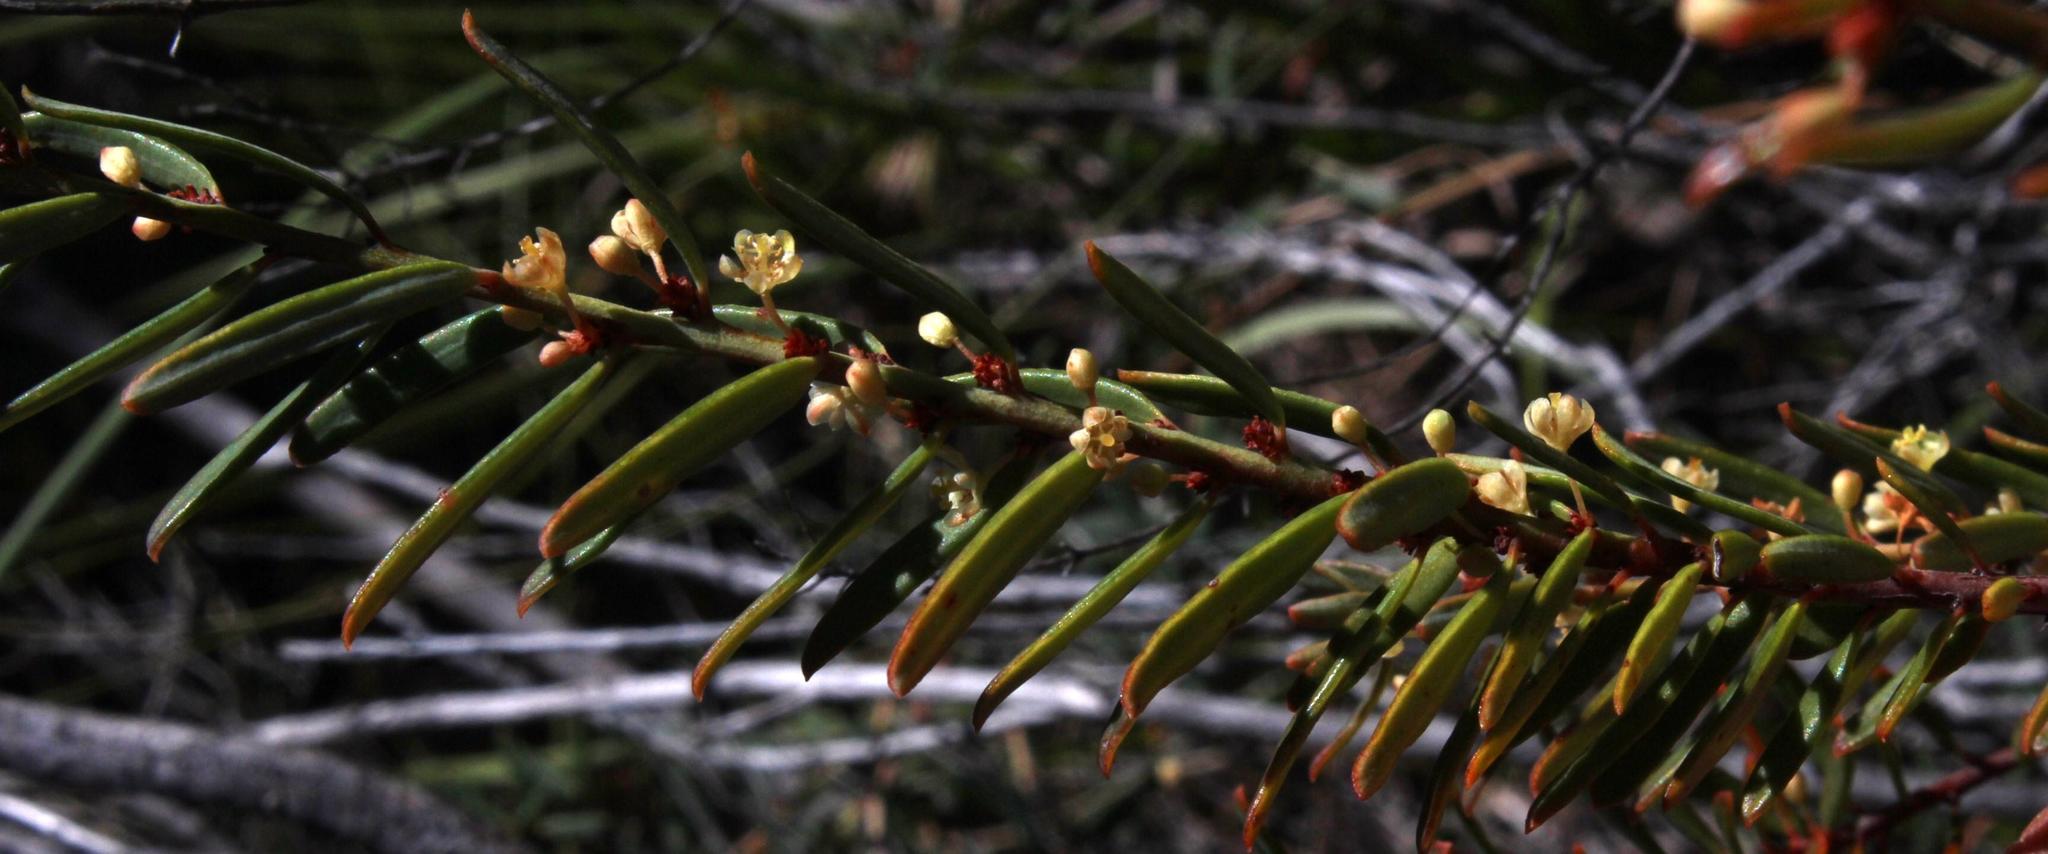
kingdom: Plantae
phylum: Tracheophyta
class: Magnoliopsida
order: Malpighiales
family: Peraceae
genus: Clutia
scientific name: Clutia polifolia
